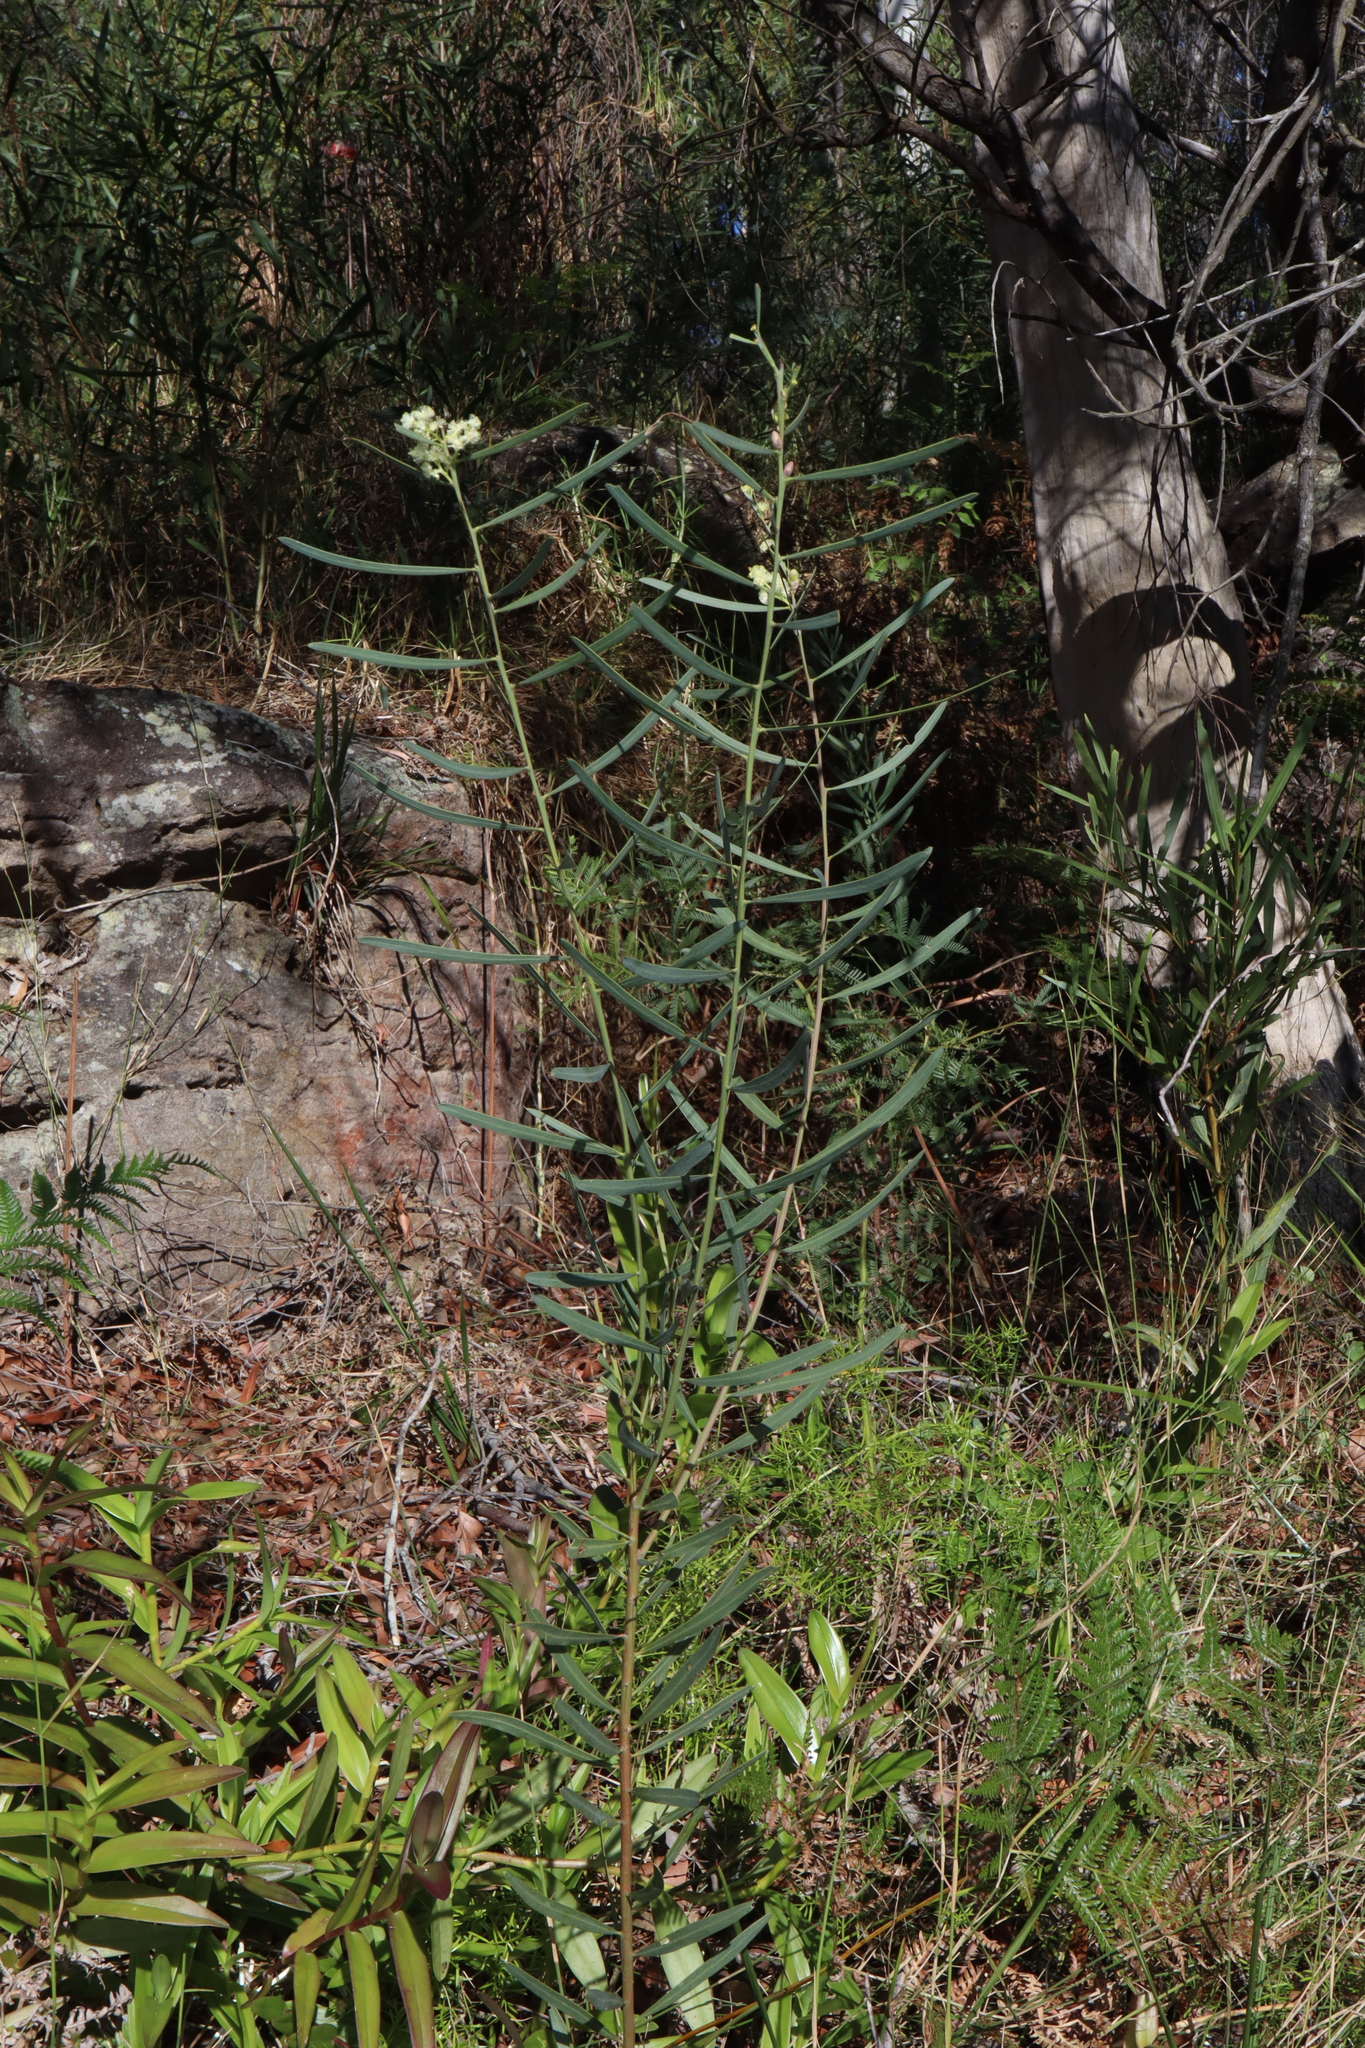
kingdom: Plantae
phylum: Tracheophyta
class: Magnoliopsida
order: Fabales
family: Fabaceae
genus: Acacia
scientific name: Acacia suaveolens
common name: Sweet acacia
